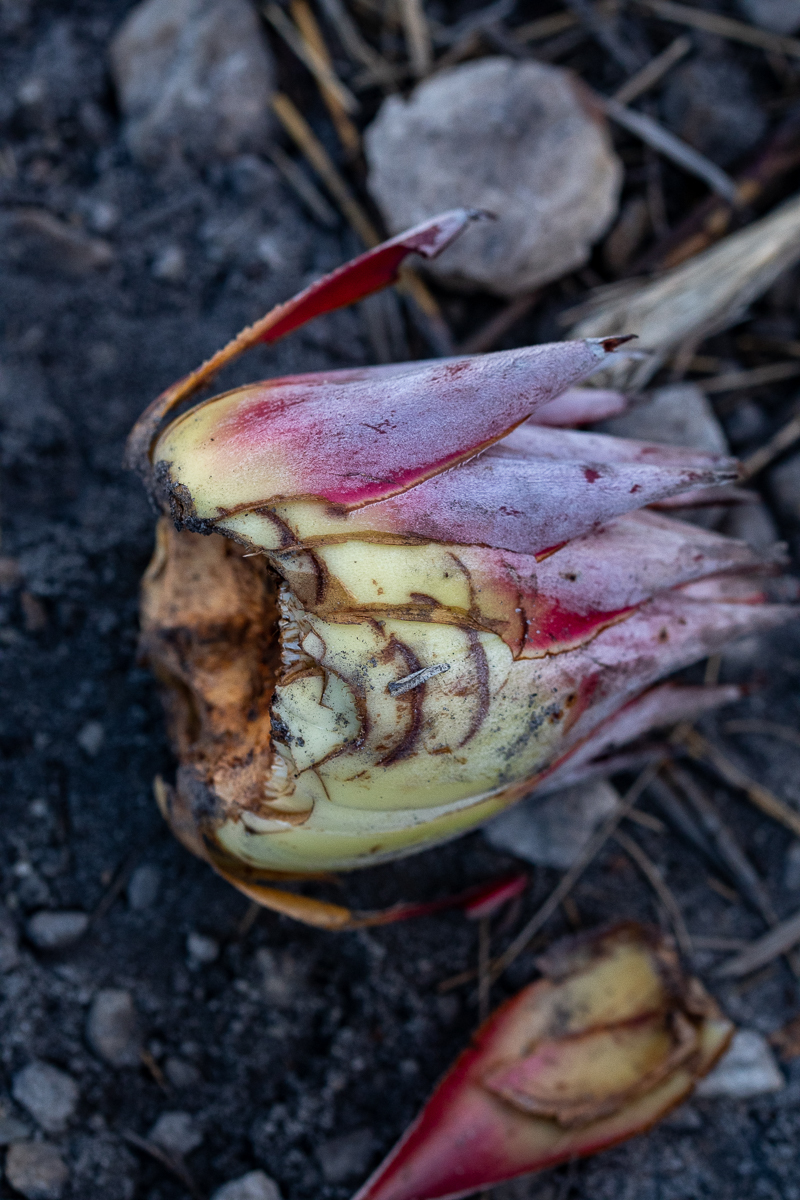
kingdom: Plantae
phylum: Tracheophyta
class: Magnoliopsida
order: Proteales
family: Proteaceae
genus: Protea
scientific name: Protea cynaroides
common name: King protea
